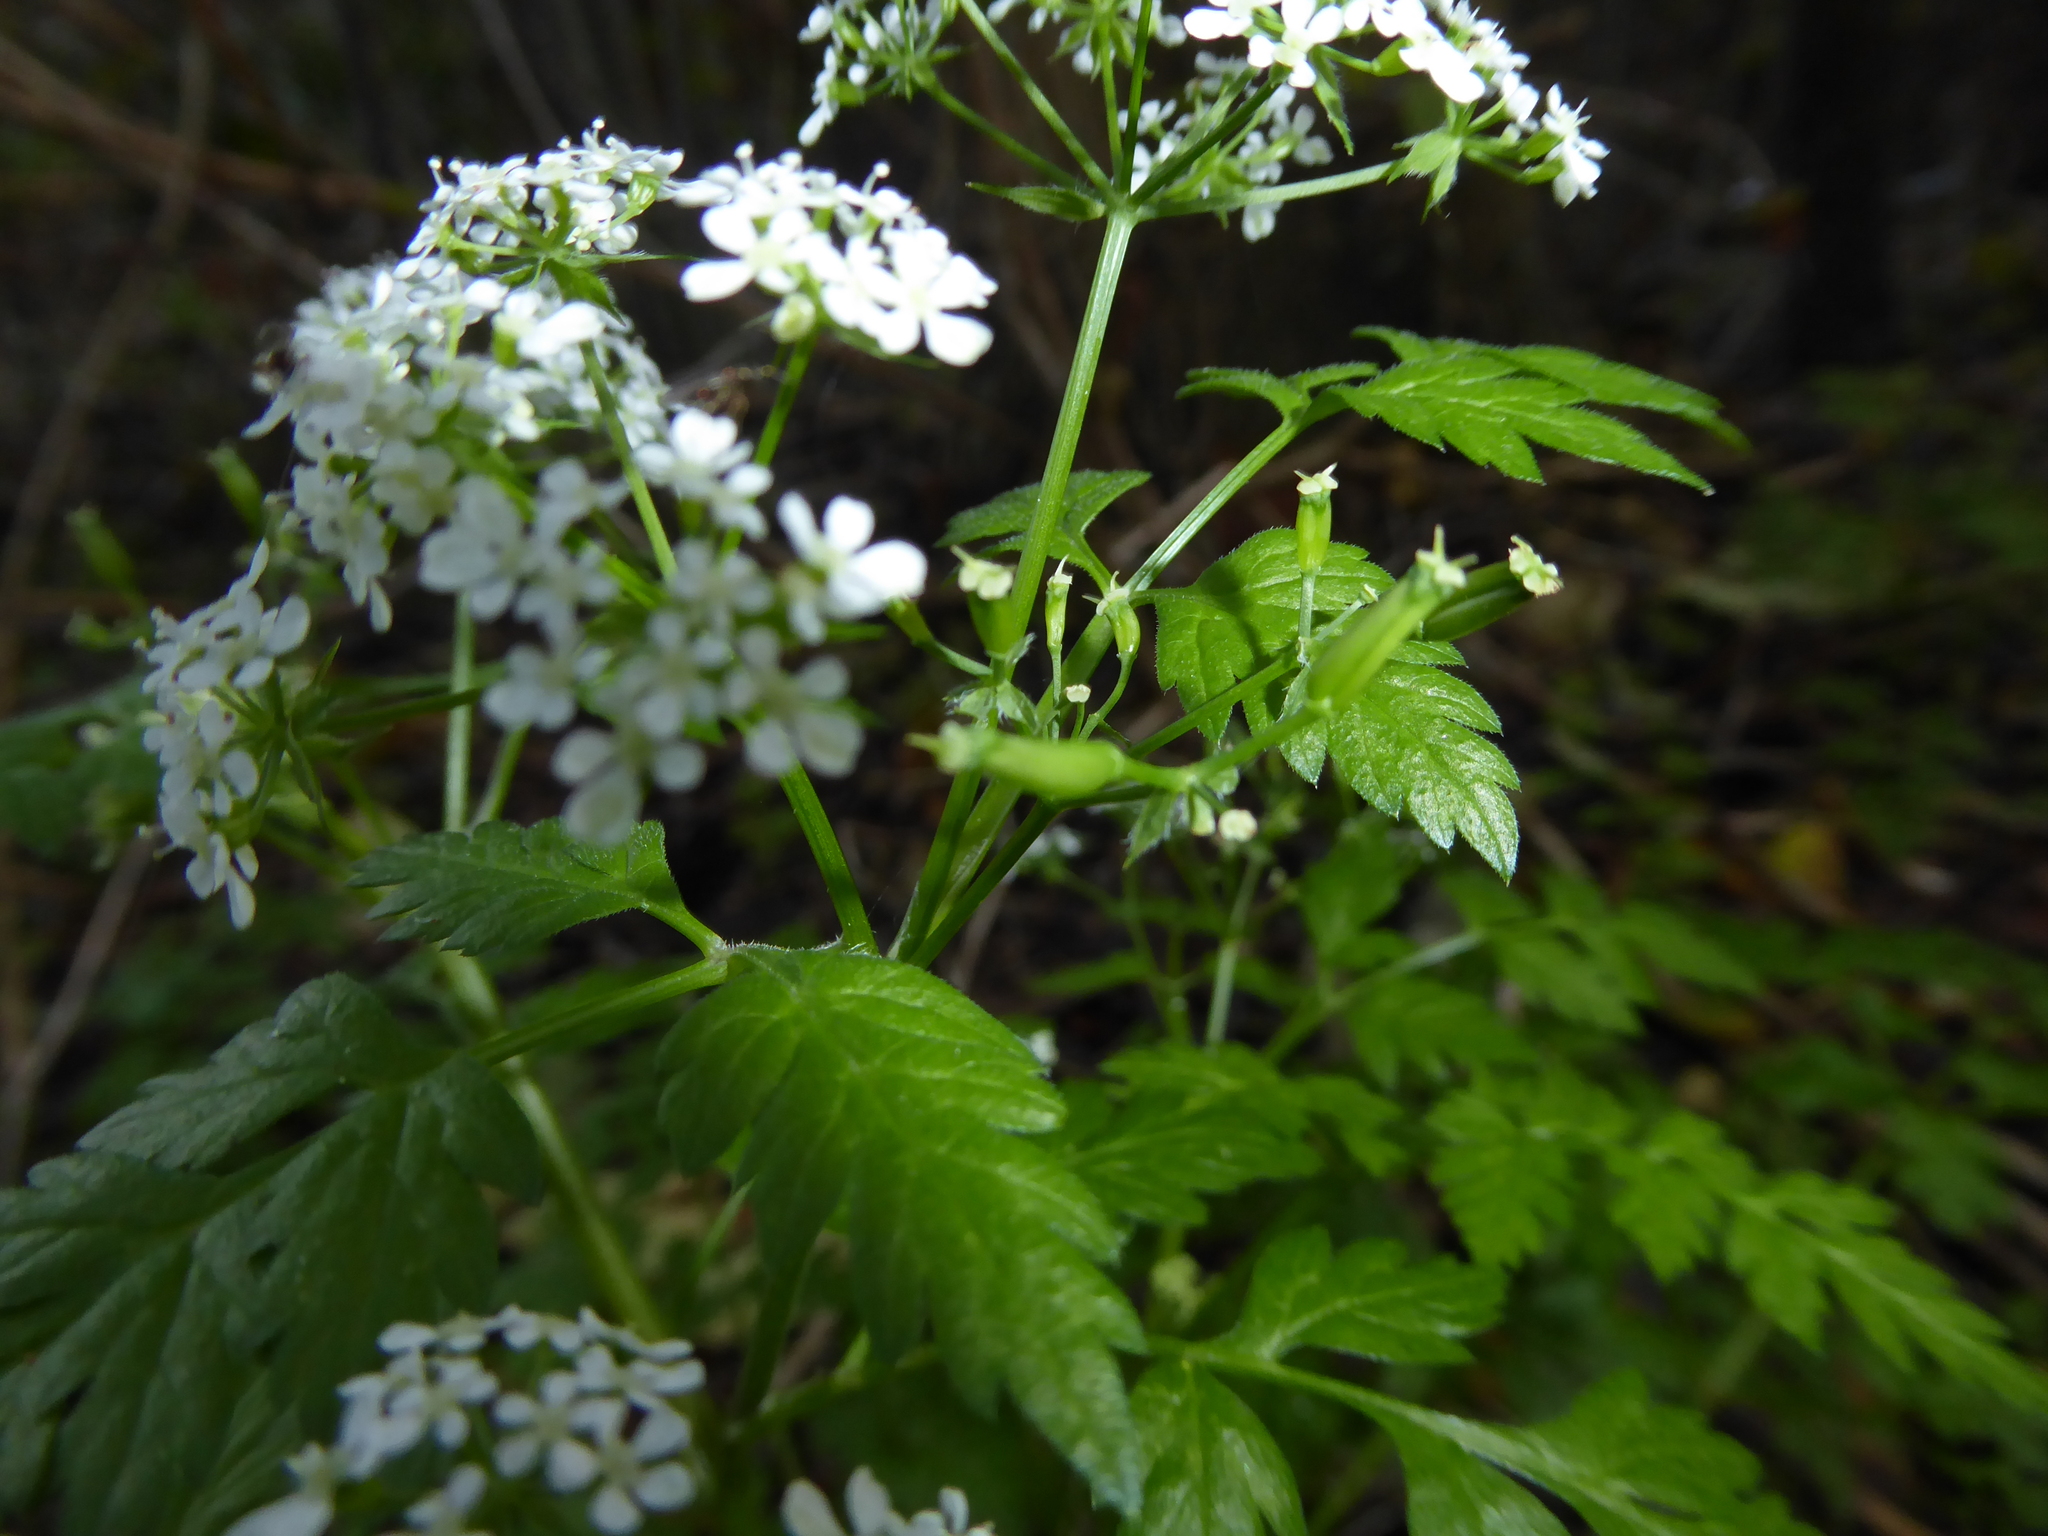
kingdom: Plantae
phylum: Tracheophyta
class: Magnoliopsida
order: Apiales
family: Apiaceae
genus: Anthriscus
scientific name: Anthriscus sylvestris
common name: Cow parsley
